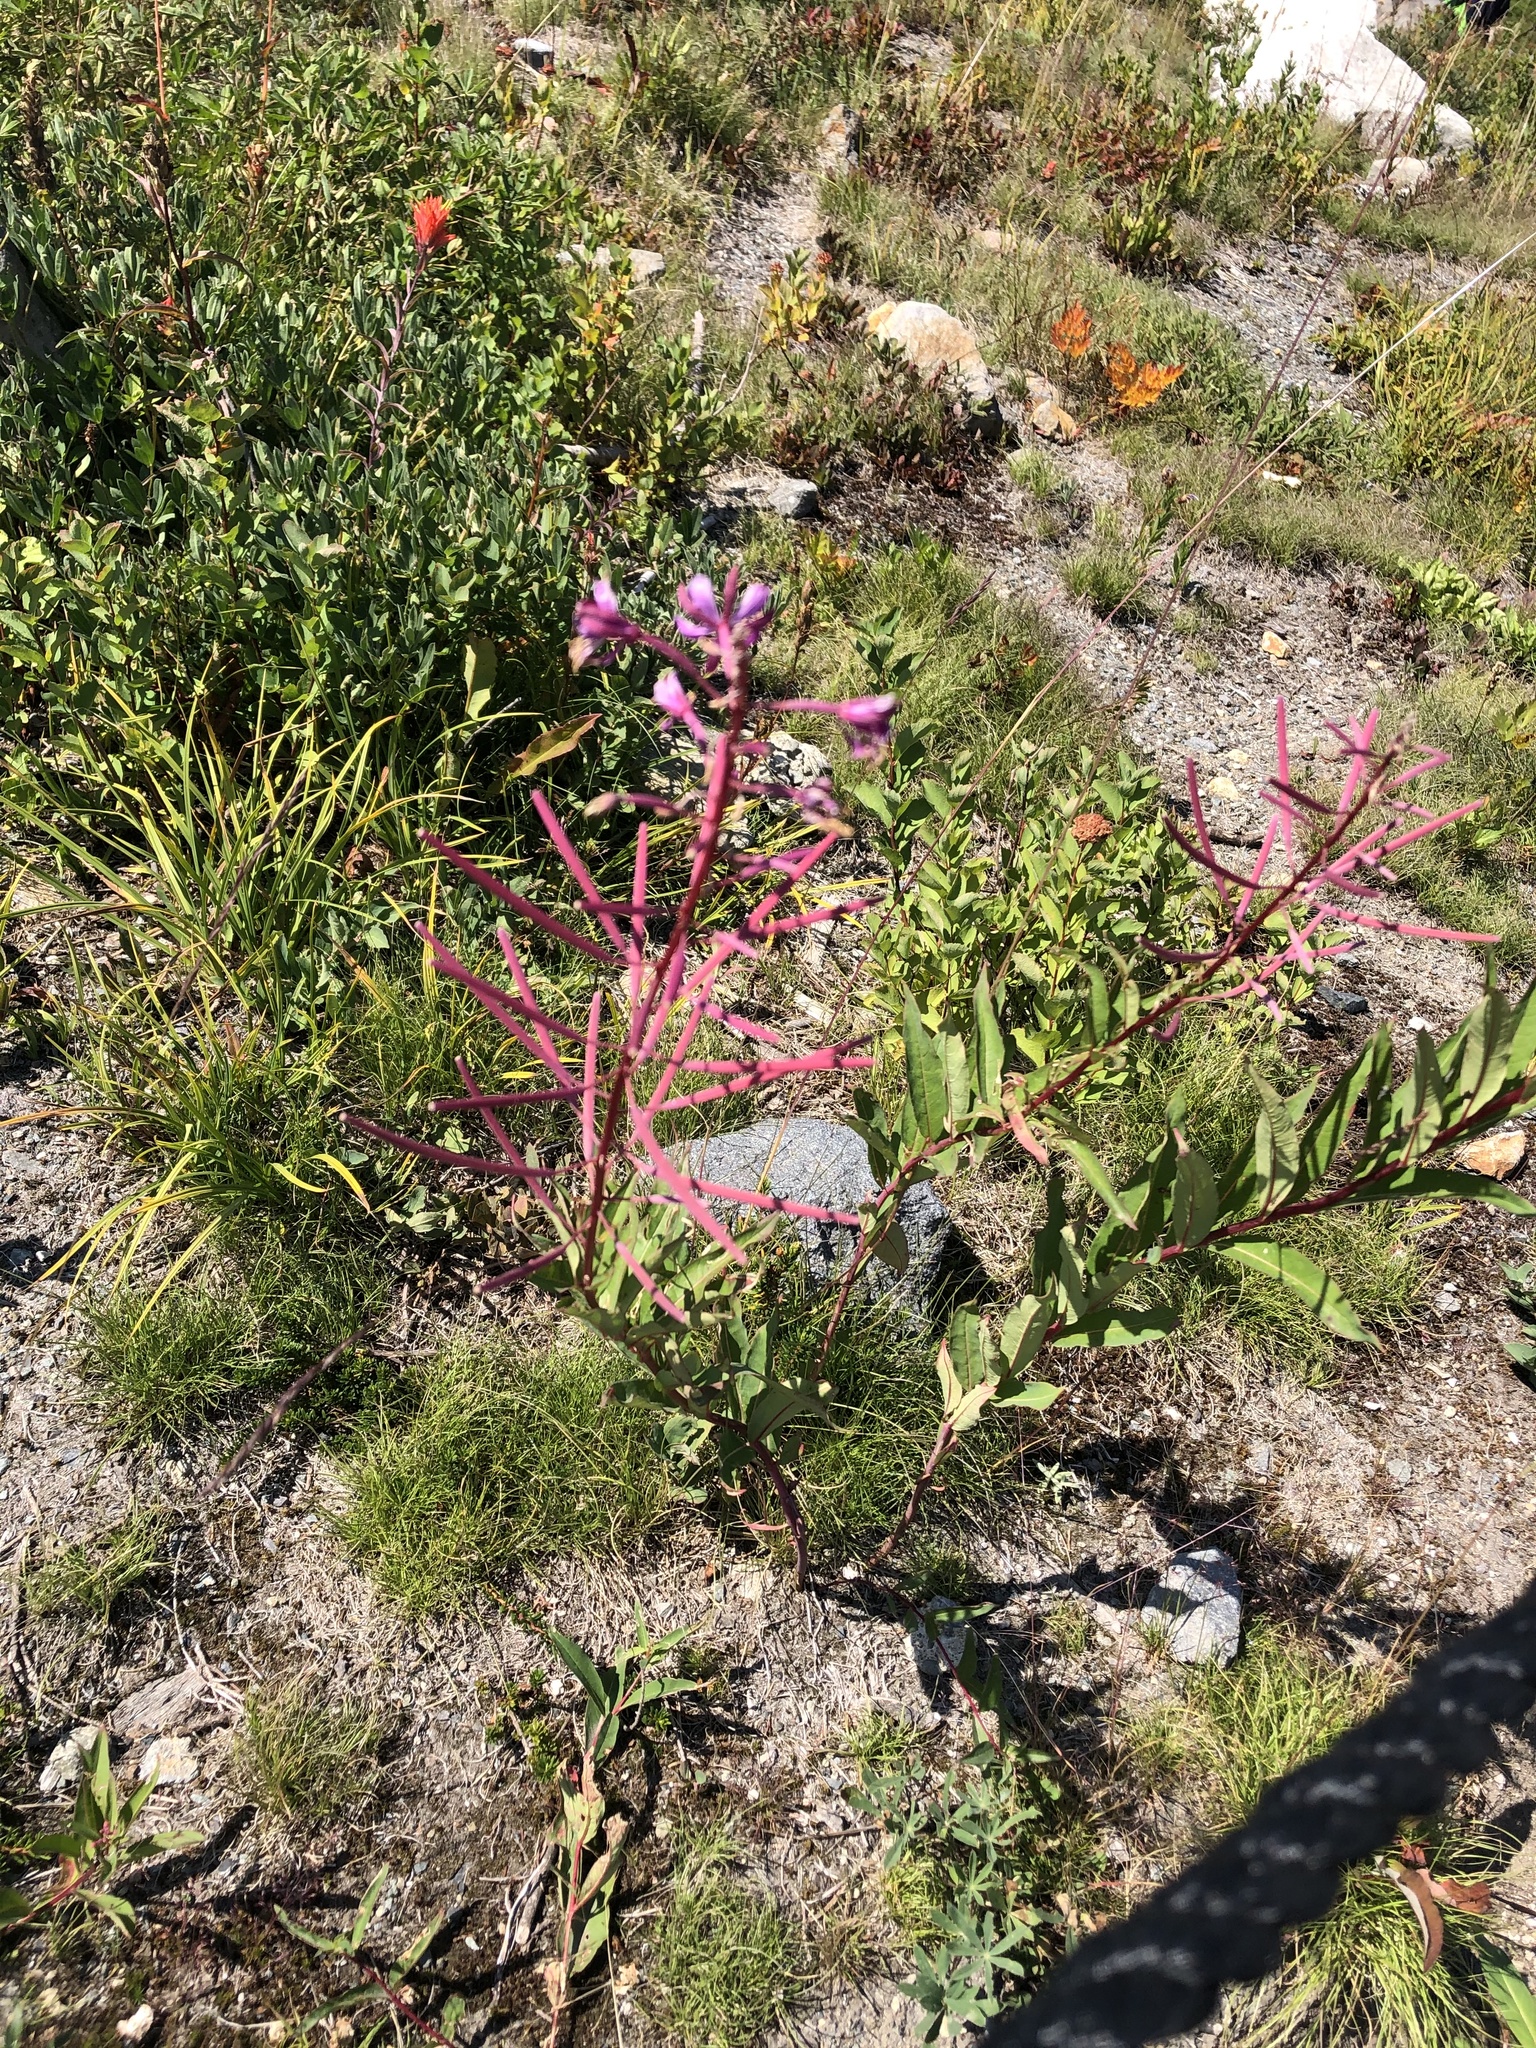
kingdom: Plantae
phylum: Tracheophyta
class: Magnoliopsida
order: Myrtales
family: Onagraceae
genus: Chamaenerion
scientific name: Chamaenerion angustifolium
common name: Fireweed
